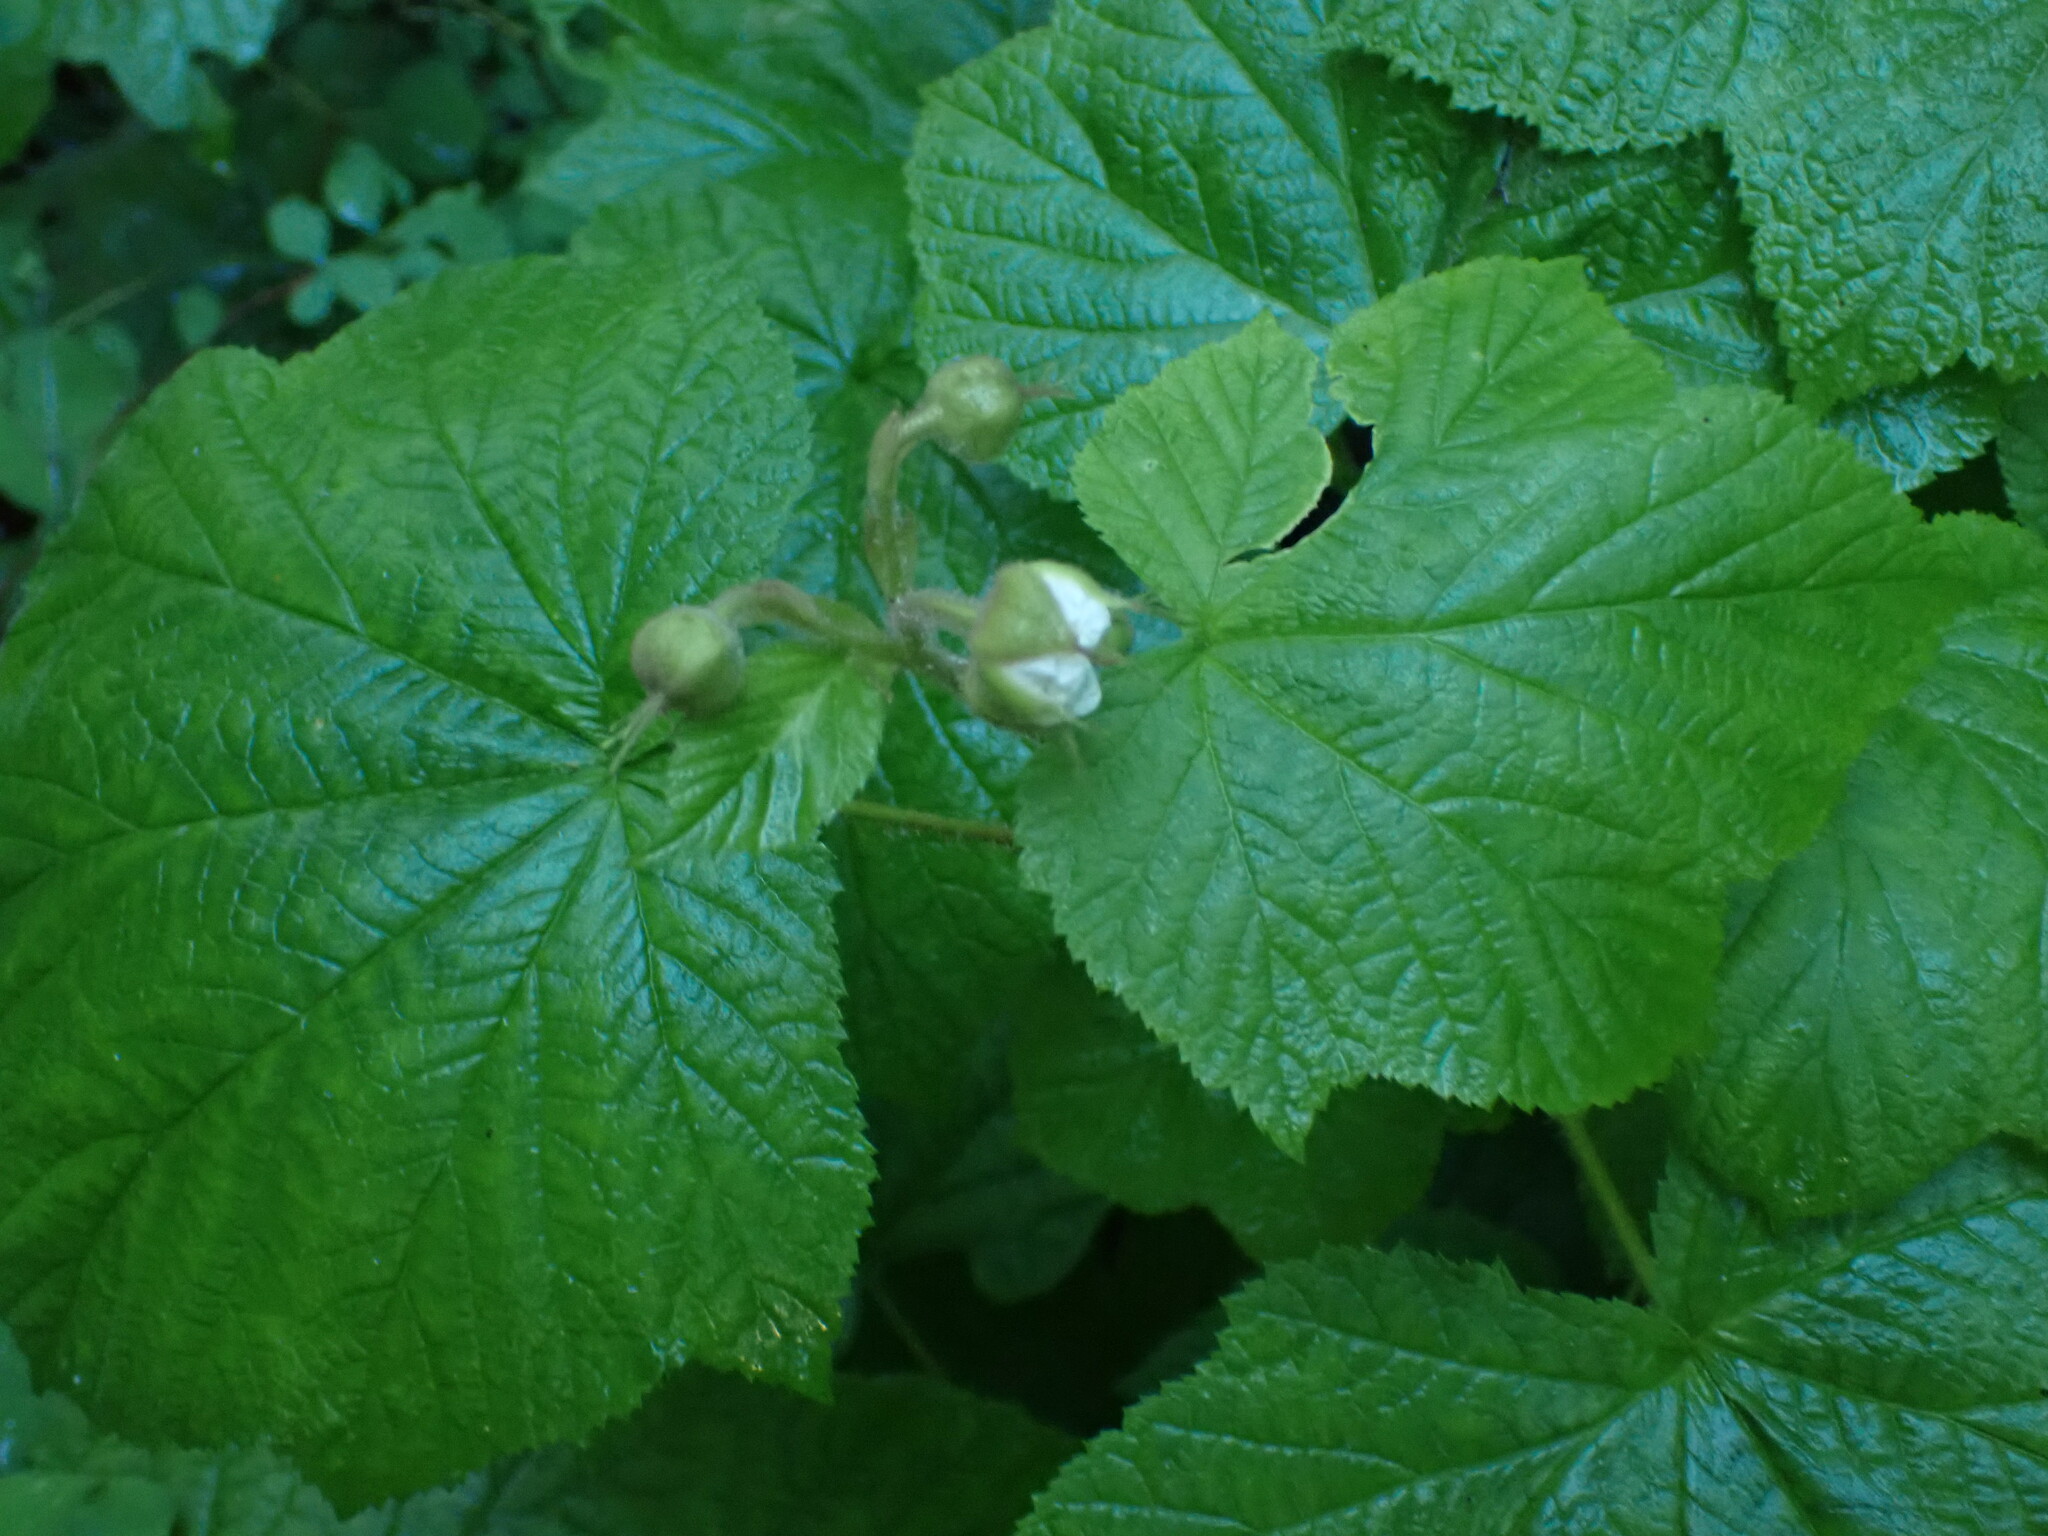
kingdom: Plantae
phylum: Tracheophyta
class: Magnoliopsida
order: Rosales
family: Rosaceae
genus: Rubus
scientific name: Rubus parviflorus
